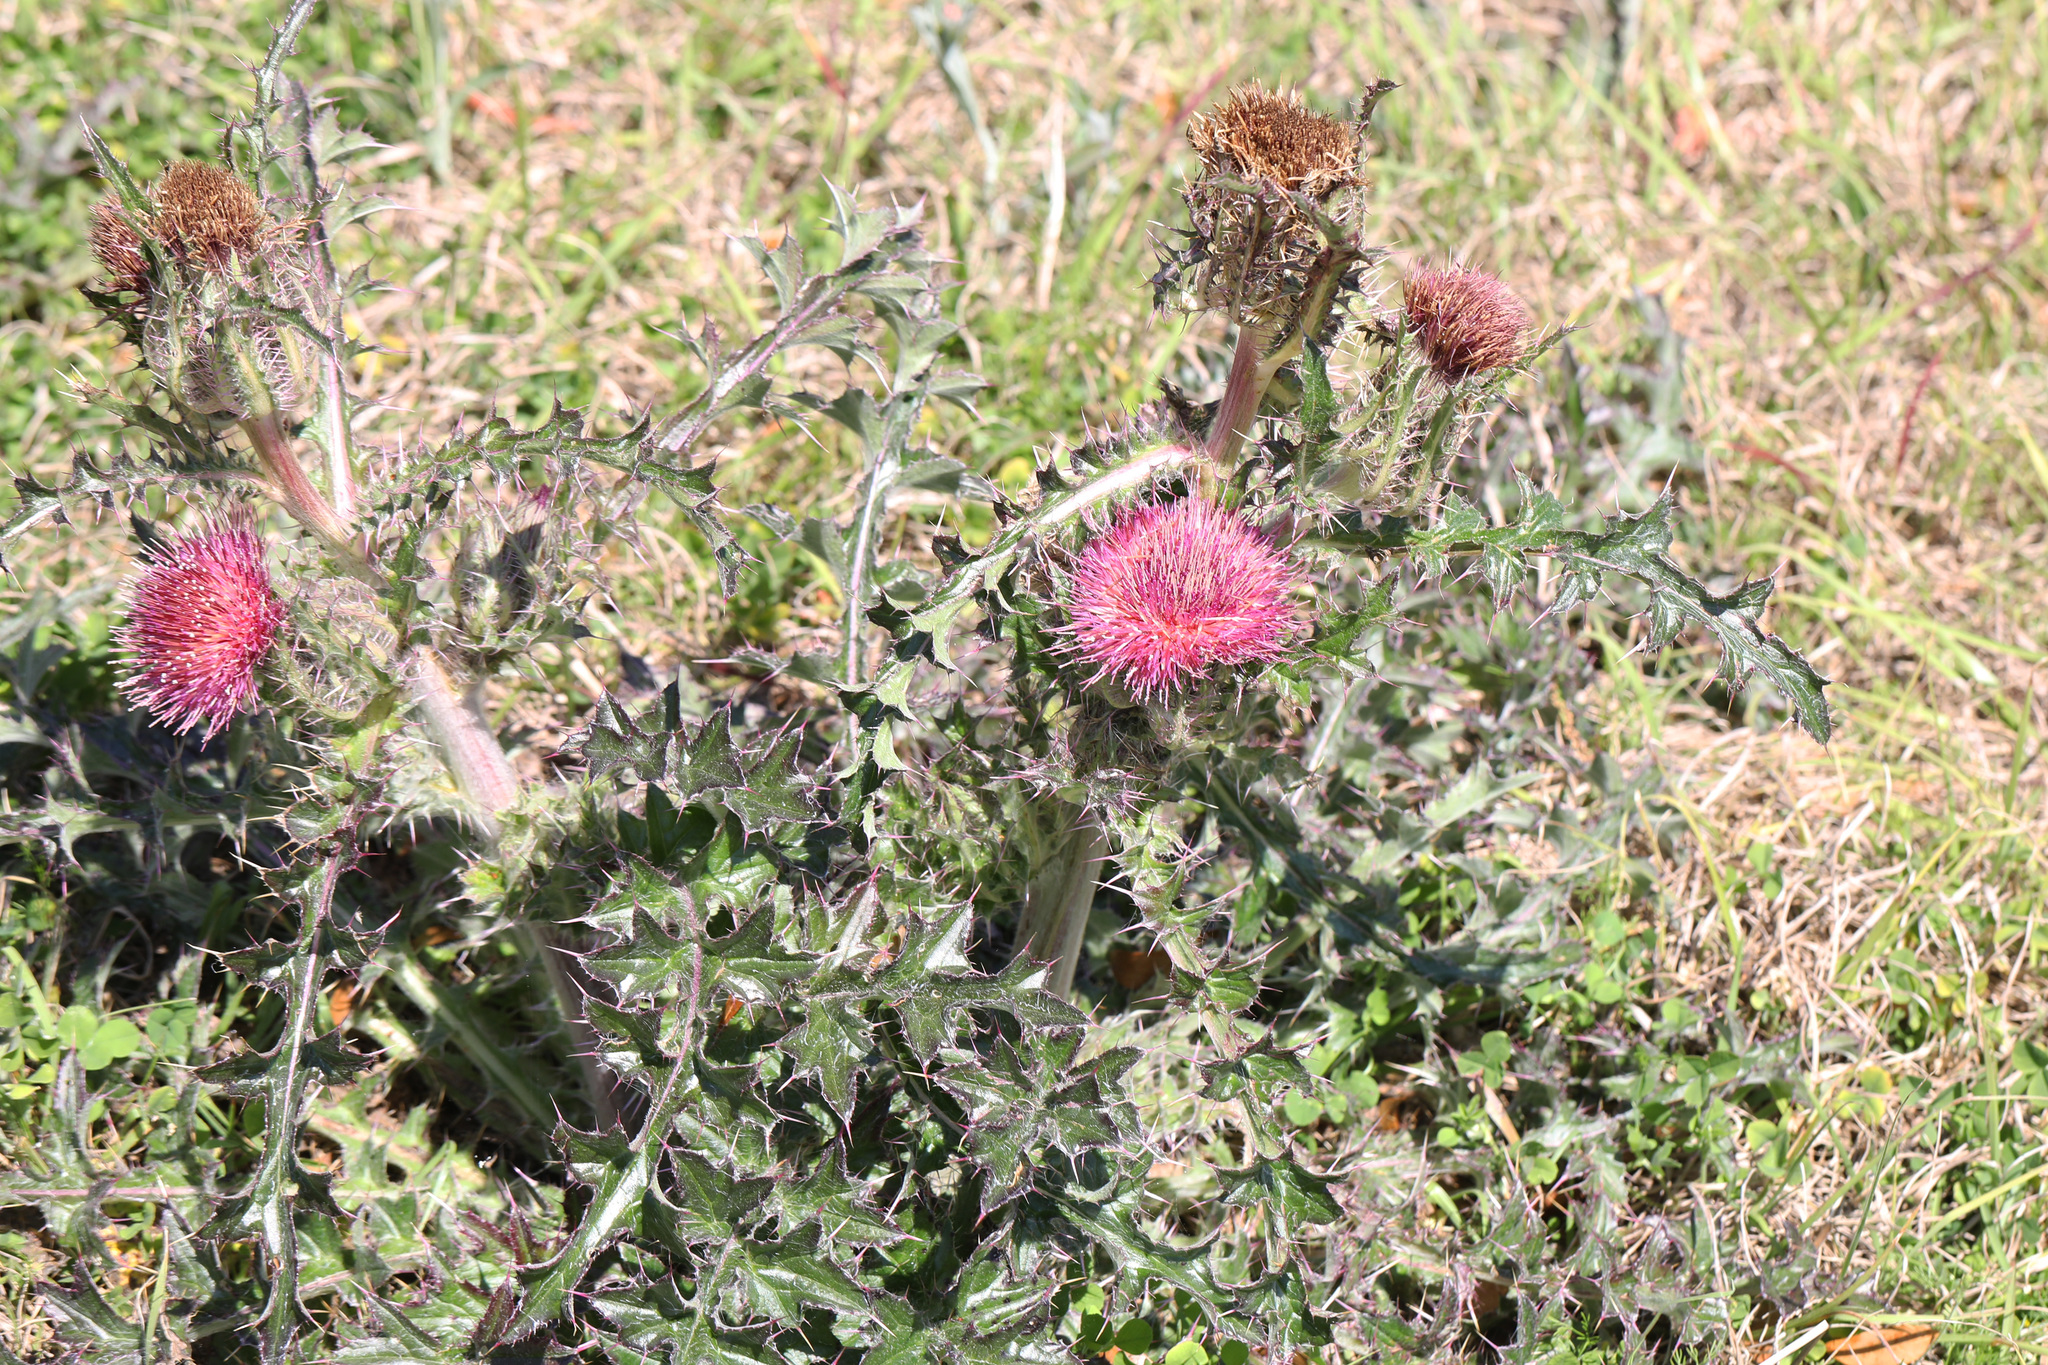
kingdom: Plantae
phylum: Tracheophyta
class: Magnoliopsida
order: Asterales
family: Asteraceae
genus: Cirsium
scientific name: Cirsium horridulum
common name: Bristly thistle
